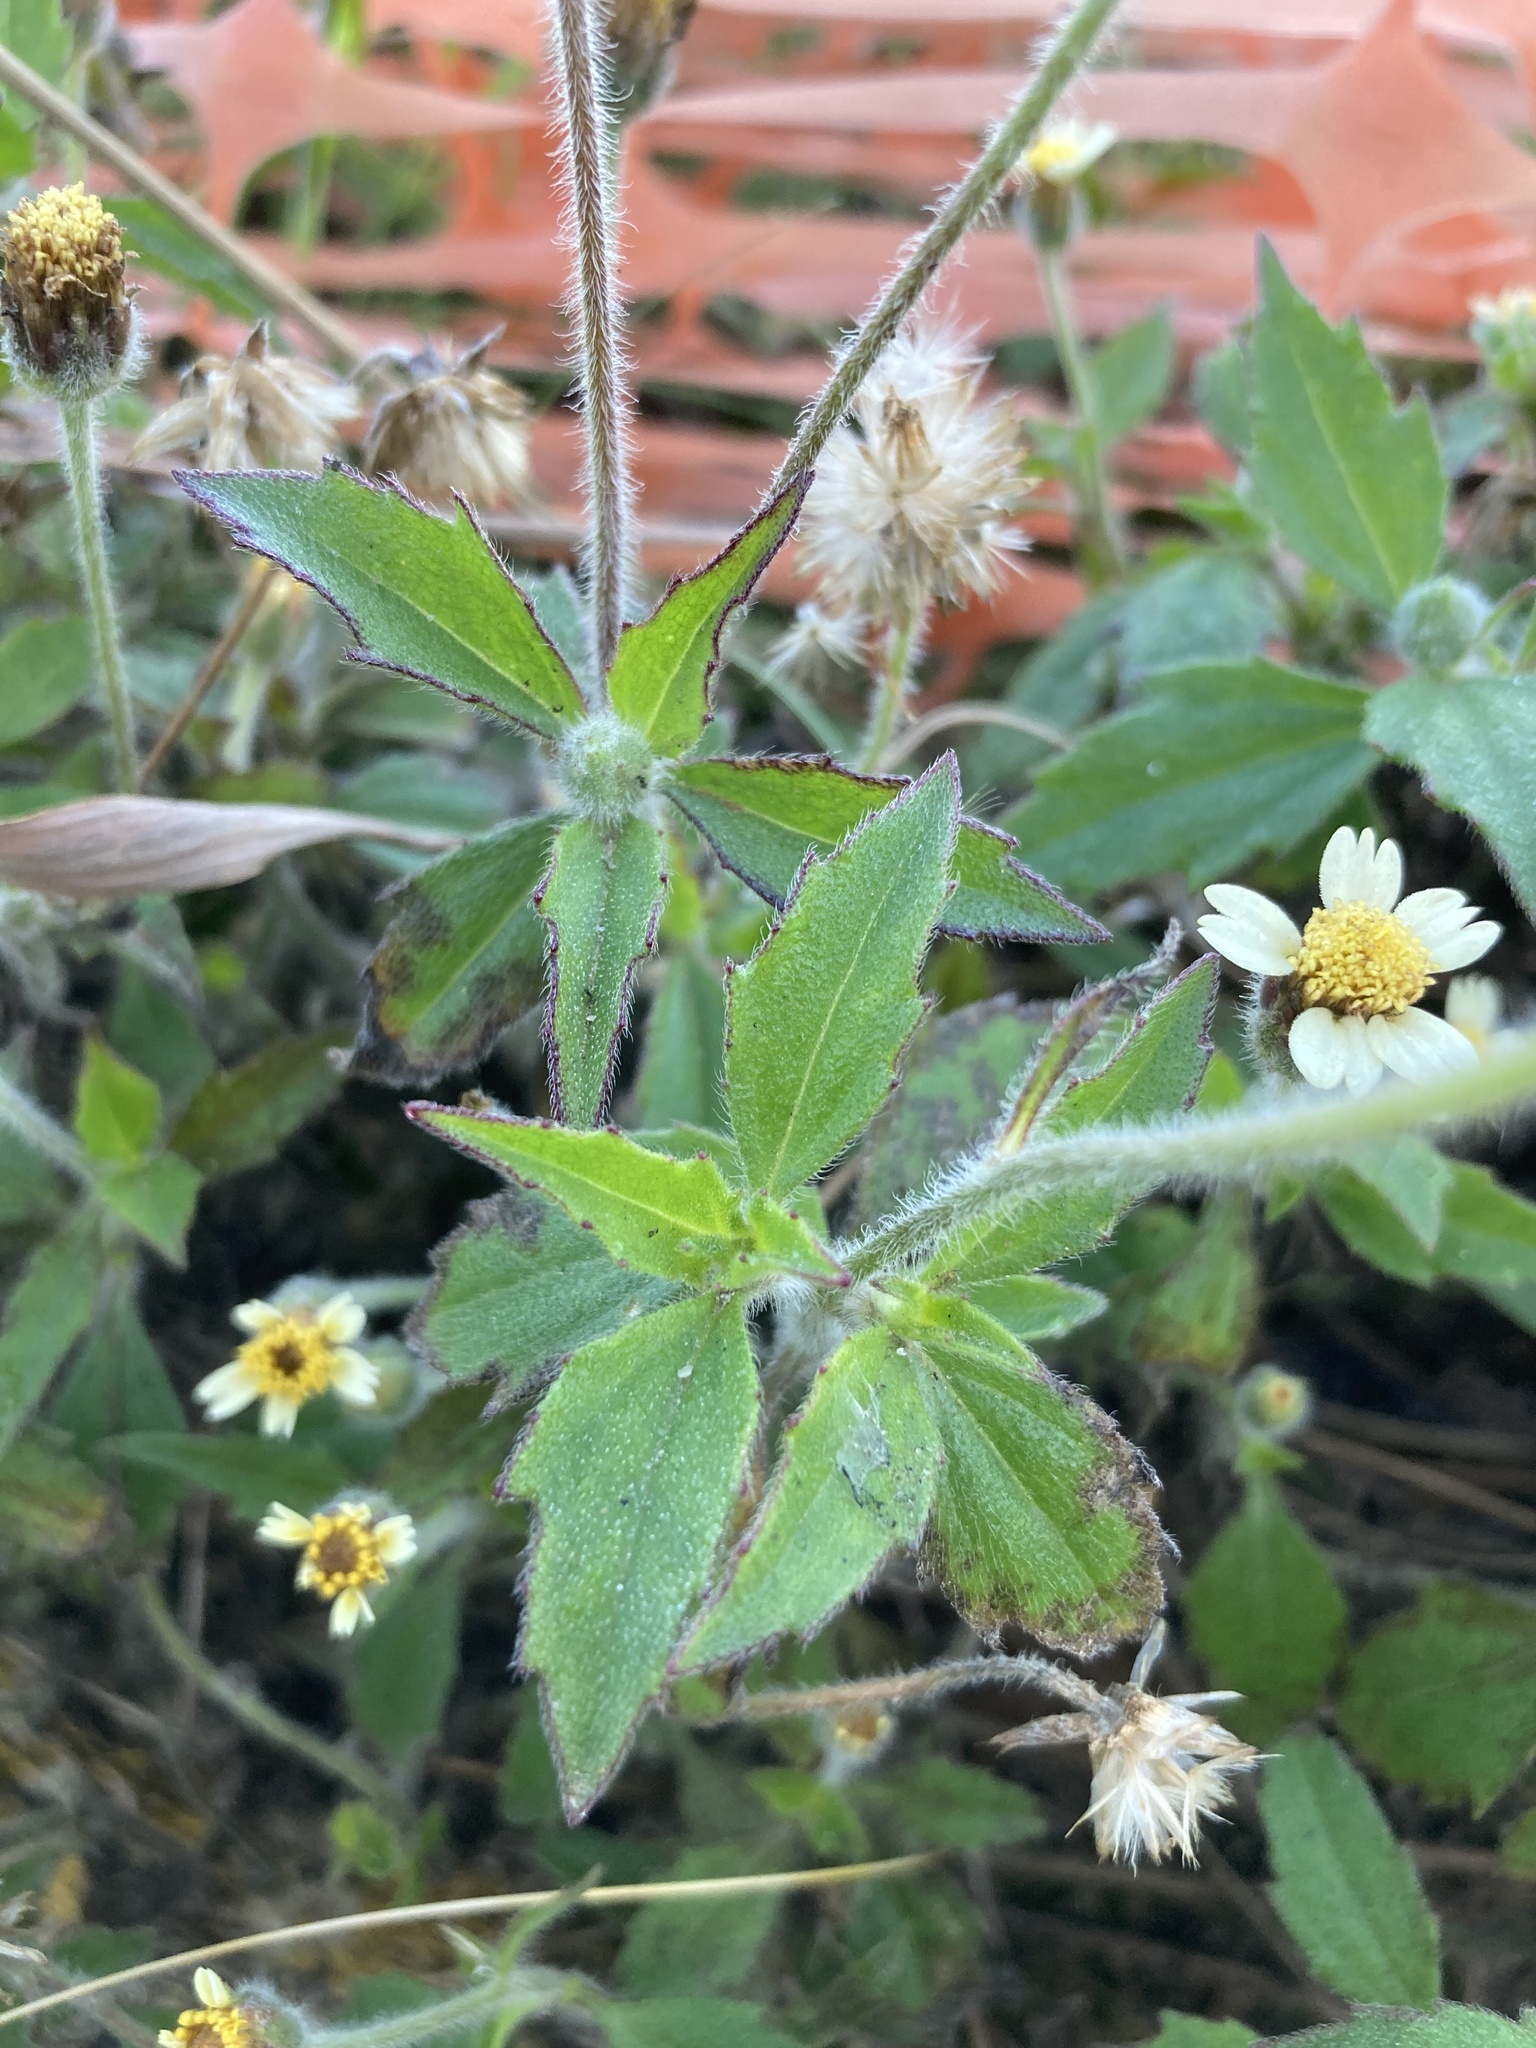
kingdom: Plantae
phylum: Tracheophyta
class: Magnoliopsida
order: Asterales
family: Asteraceae
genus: Tridax
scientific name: Tridax procumbens
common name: Coatbuttons
